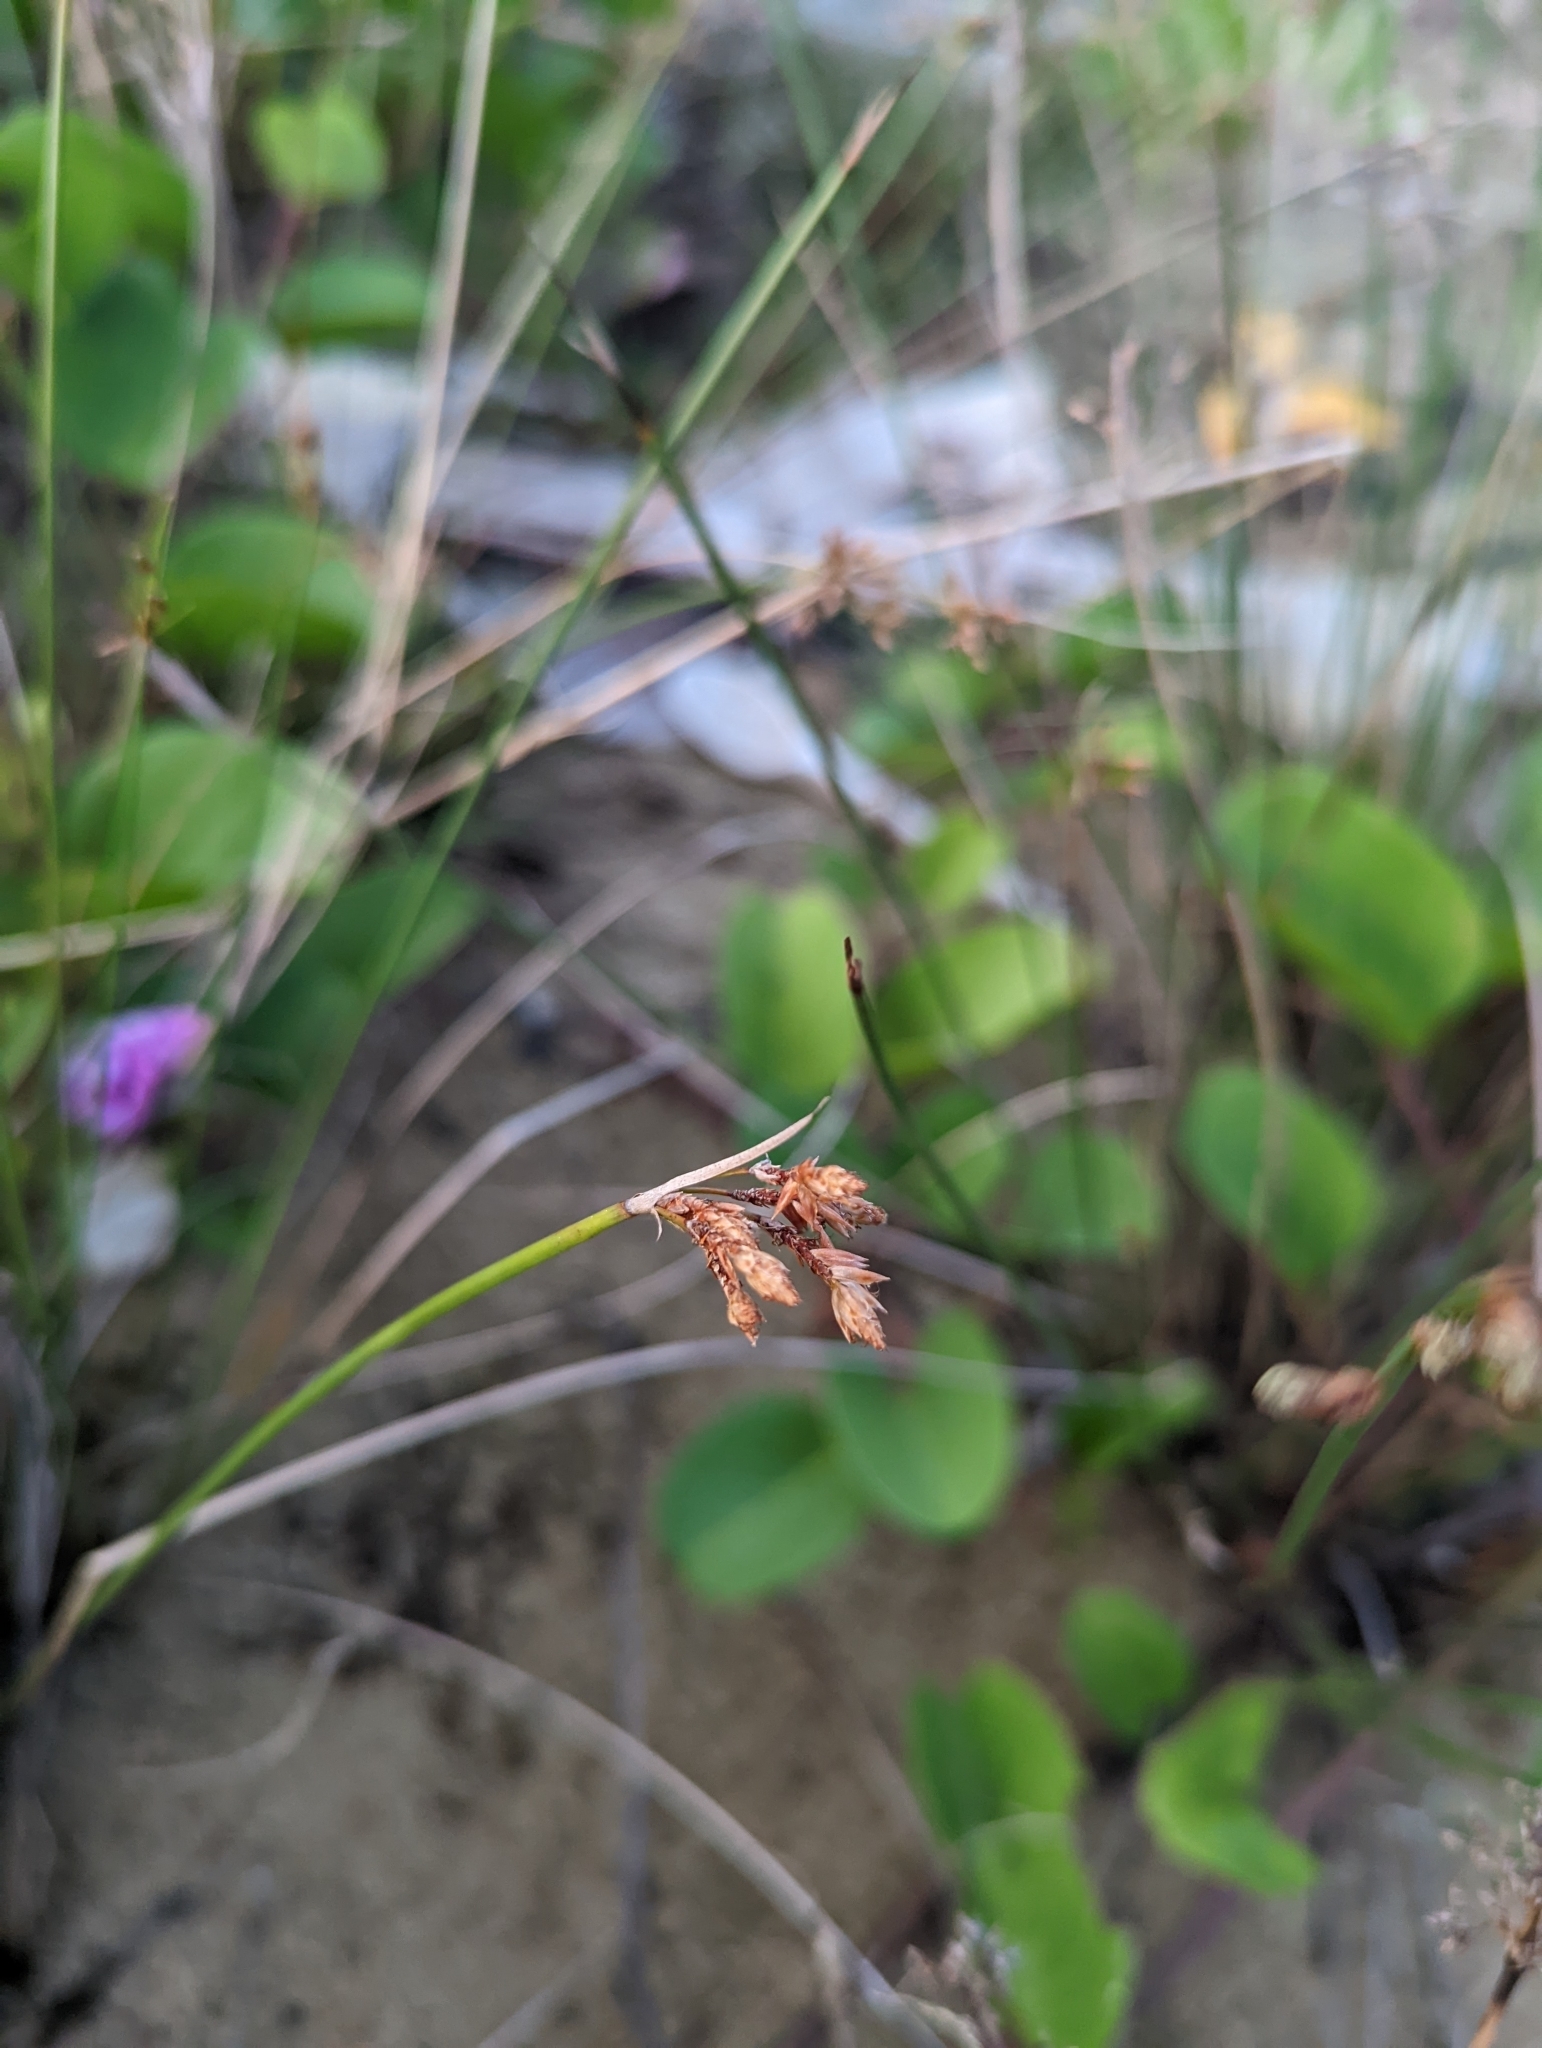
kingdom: Plantae
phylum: Tracheophyta
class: Liliopsida
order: Poales
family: Cyperaceae
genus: Fimbristylis
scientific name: Fimbristylis dichotoma
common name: Forked fimbry
